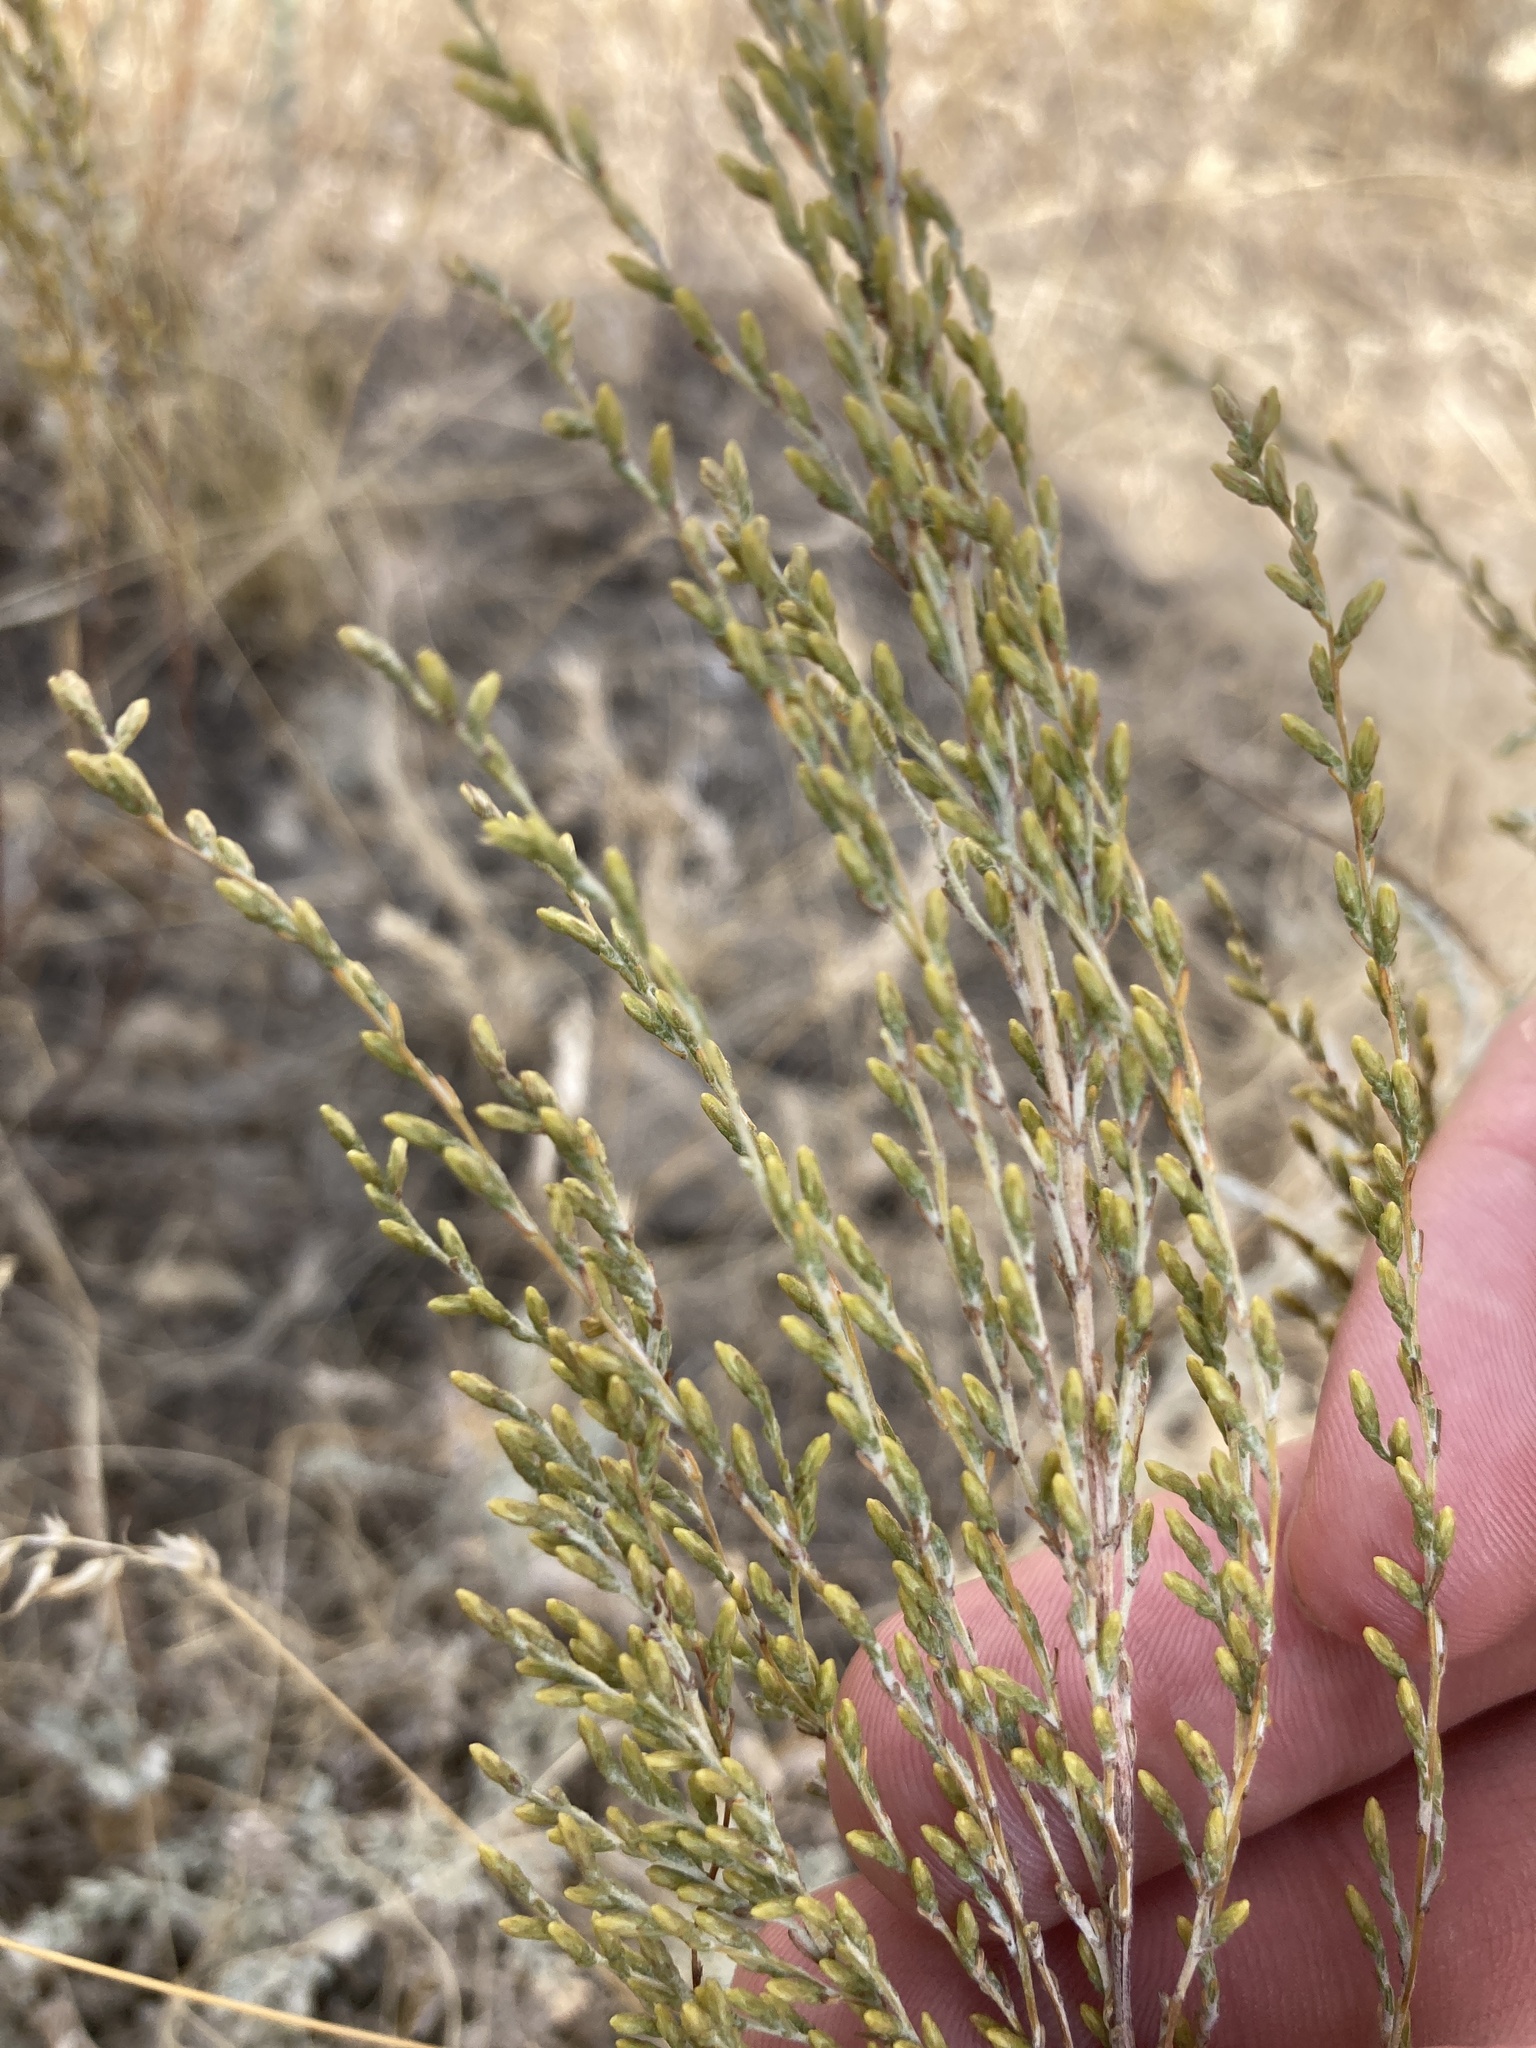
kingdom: Plantae
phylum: Tracheophyta
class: Magnoliopsida
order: Asterales
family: Asteraceae
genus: Artemisia
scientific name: Artemisia pauciflora
